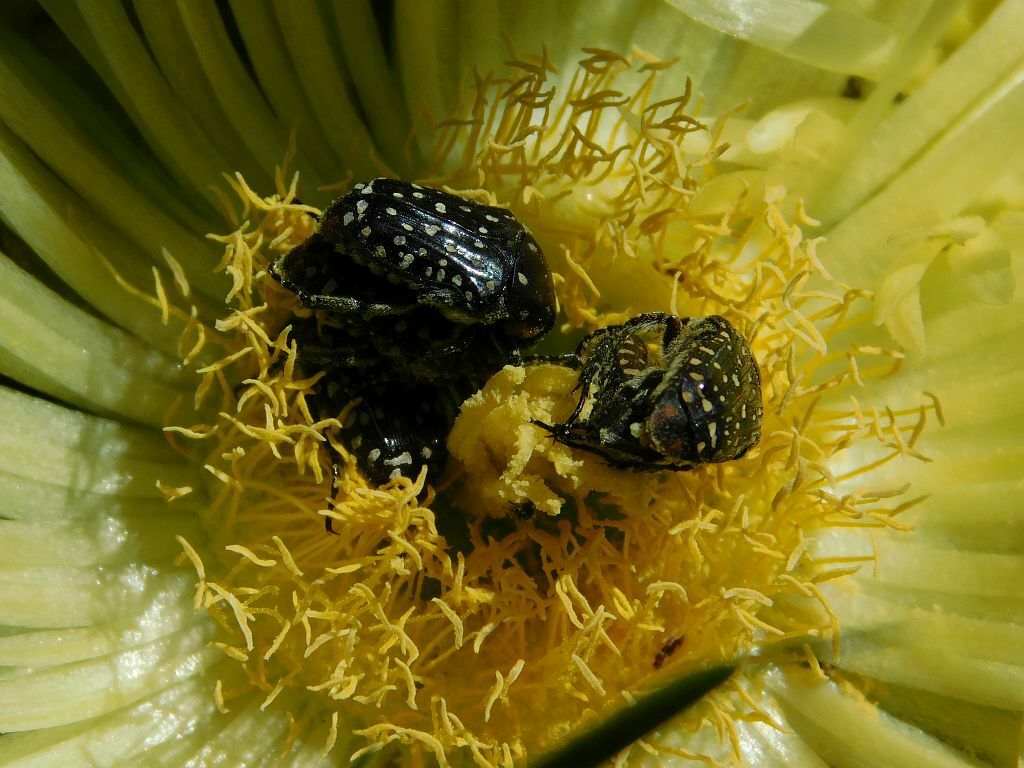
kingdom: Animalia
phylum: Arthropoda
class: Insecta
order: Coleoptera
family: Scarabaeidae
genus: Oxythyrea
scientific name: Oxythyrea
